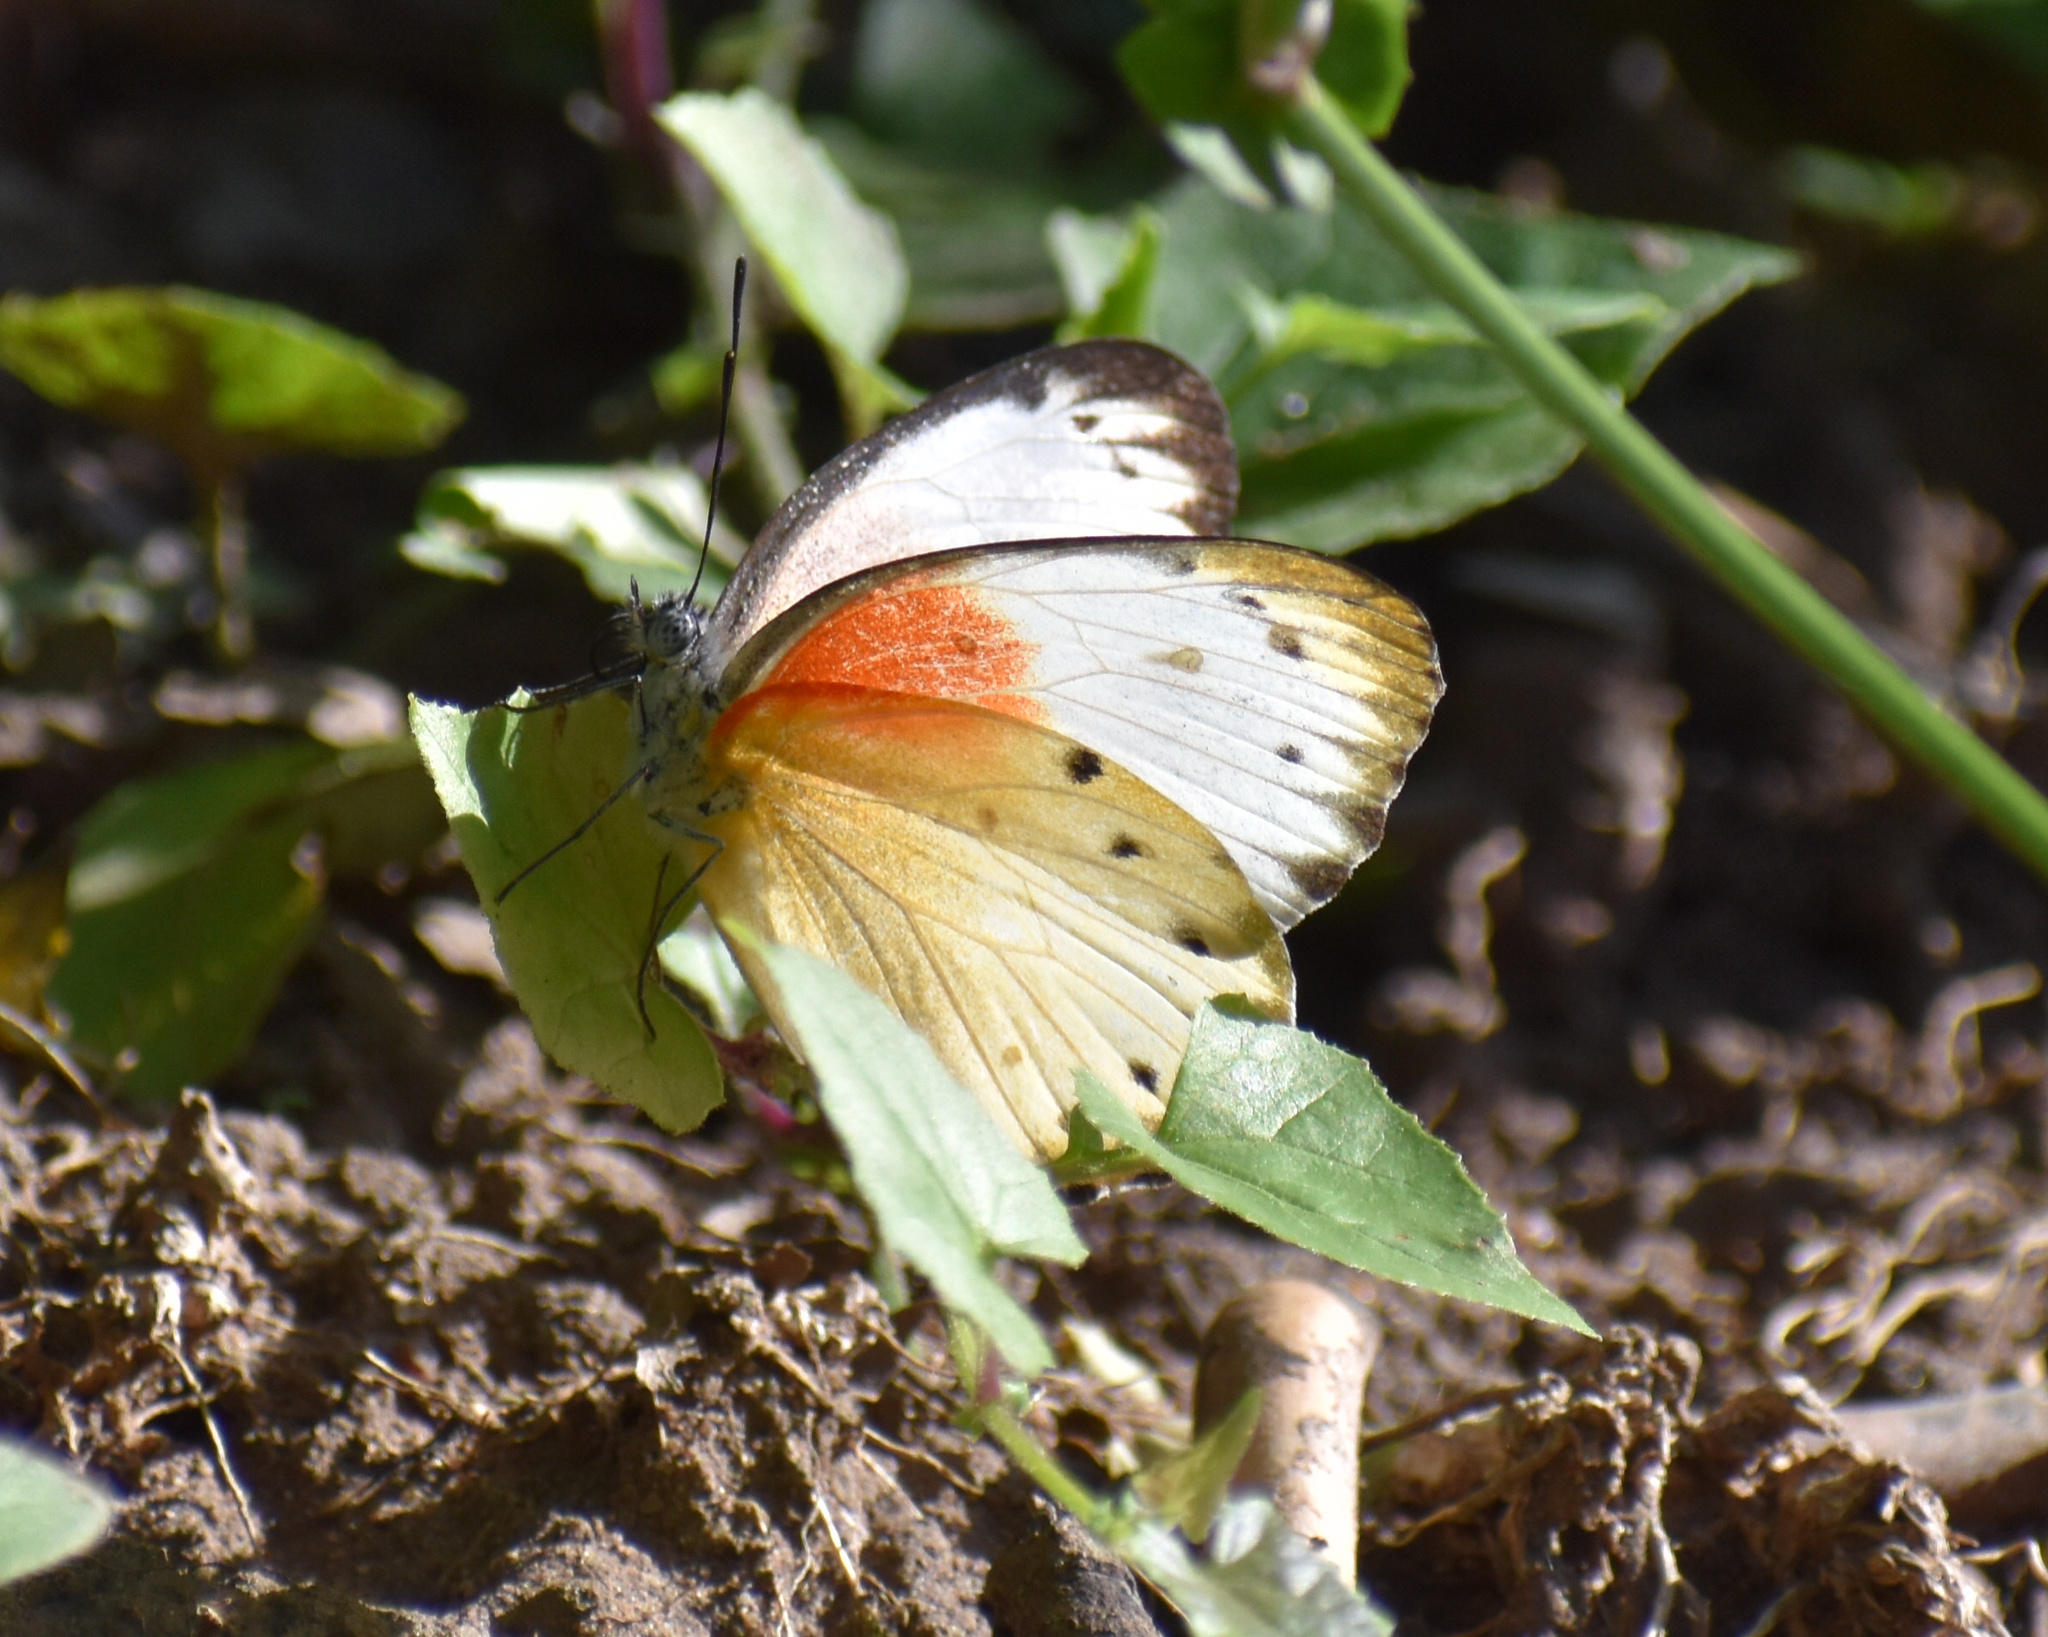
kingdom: Animalia
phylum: Arthropoda
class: Insecta
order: Lepidoptera
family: Pieridae
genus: Belenois
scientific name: Belenois thysa
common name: False dotted border
